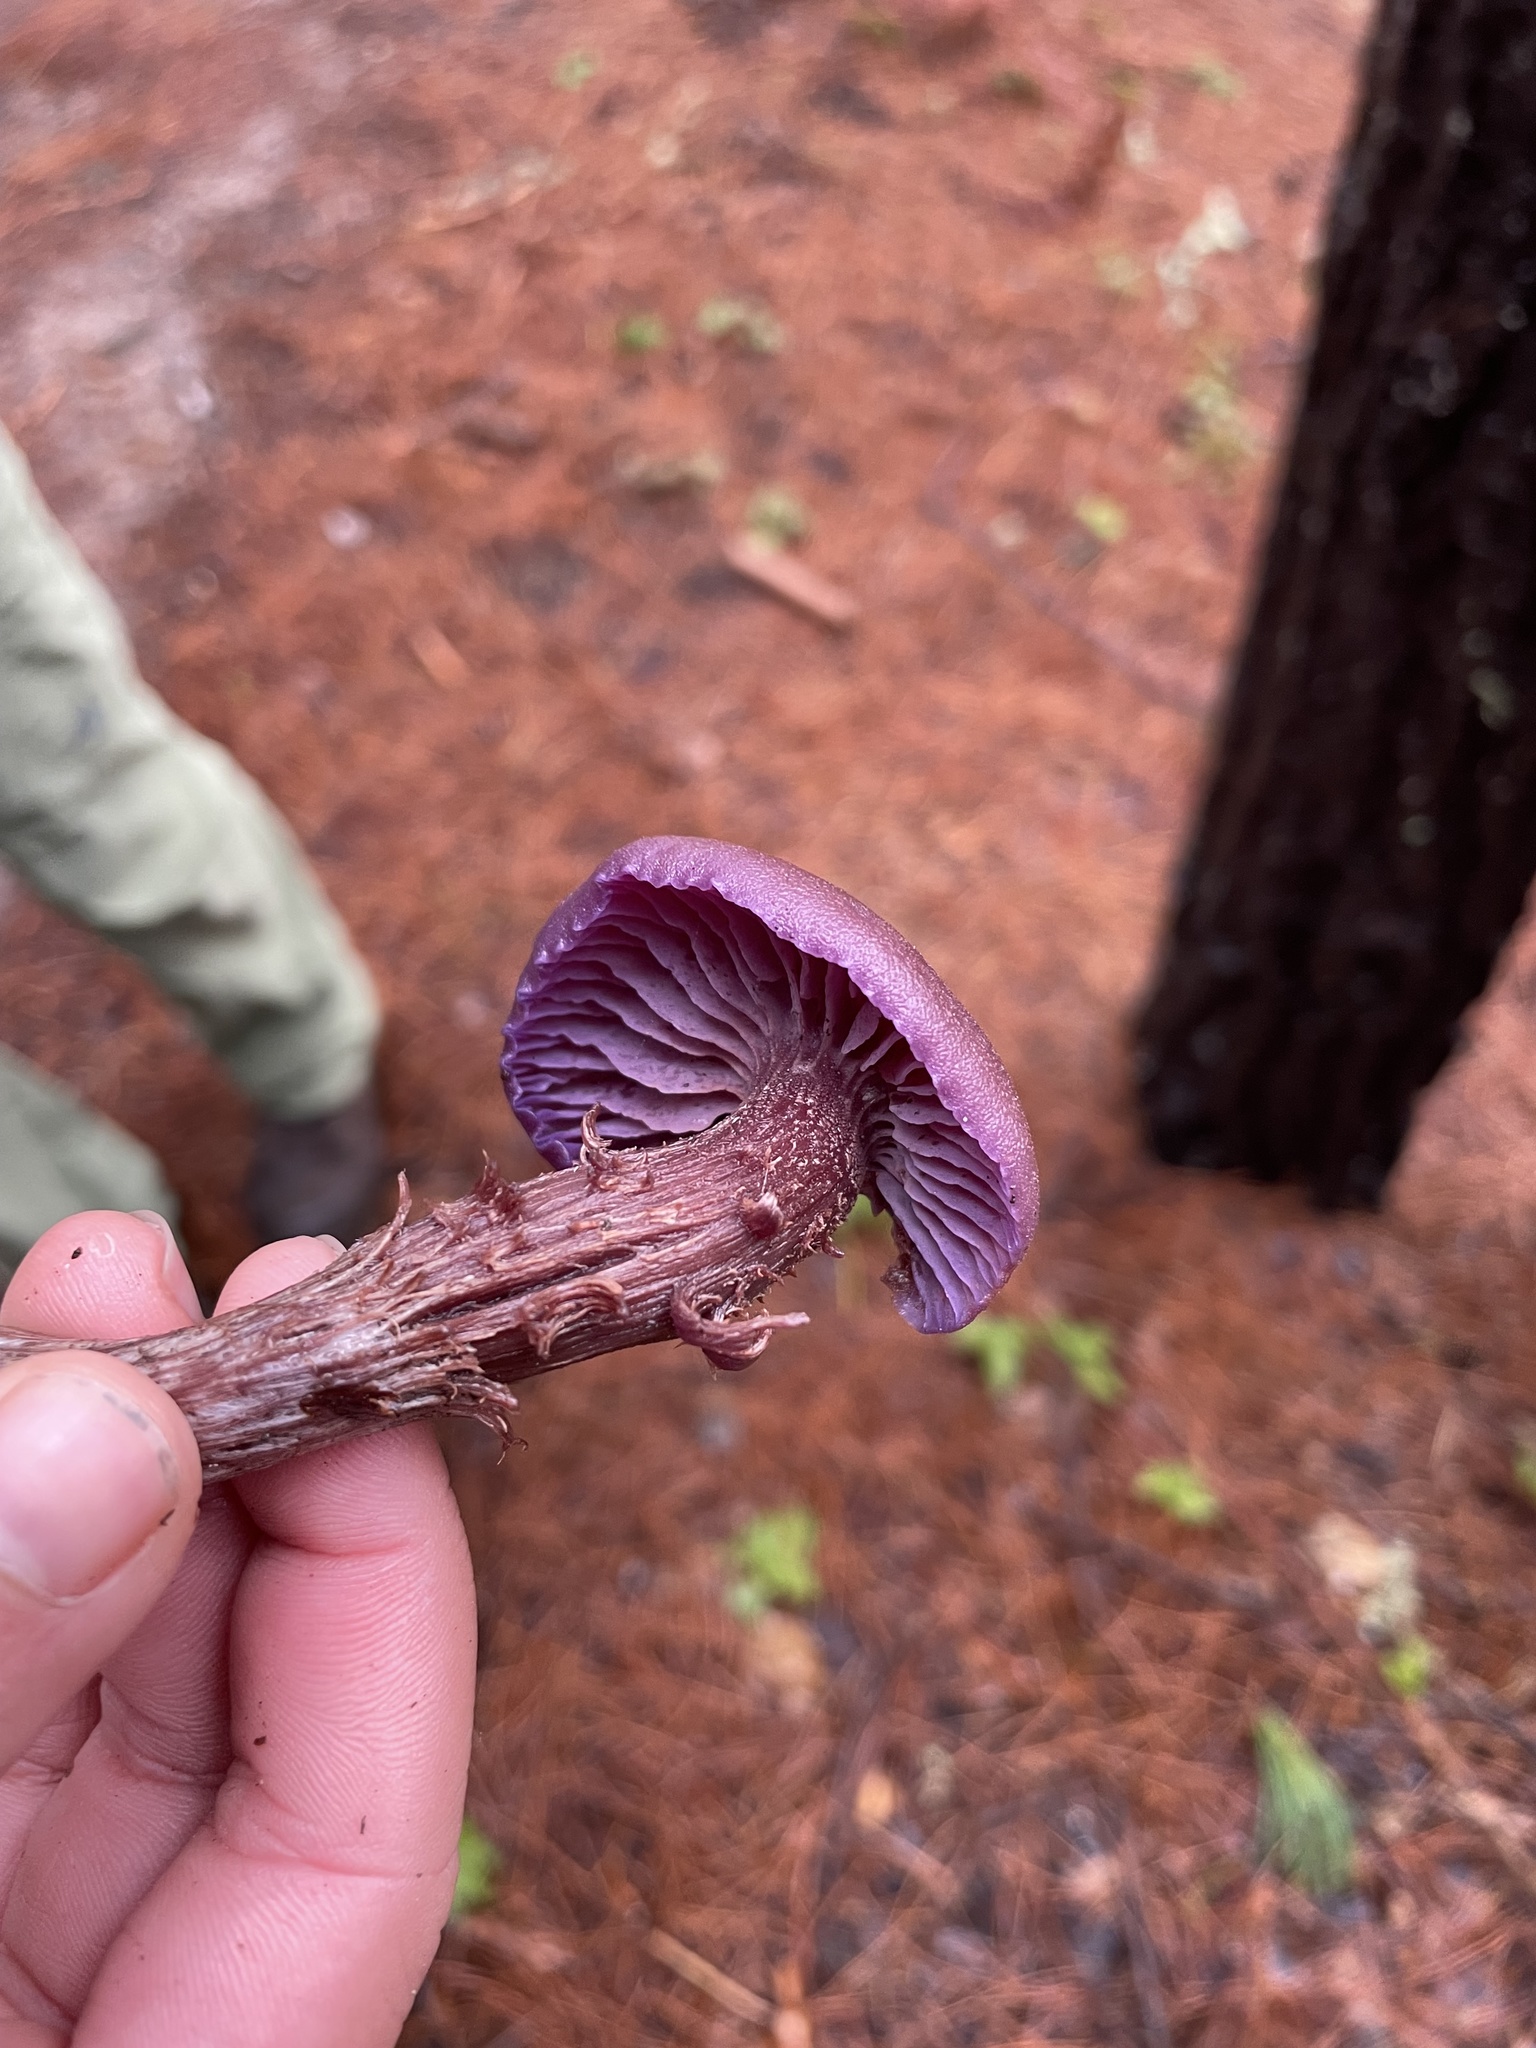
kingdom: Fungi
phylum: Basidiomycota
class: Agaricomycetes
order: Agaricales
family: Hydnangiaceae
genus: Laccaria
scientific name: Laccaria amethysteo-occidentalis
